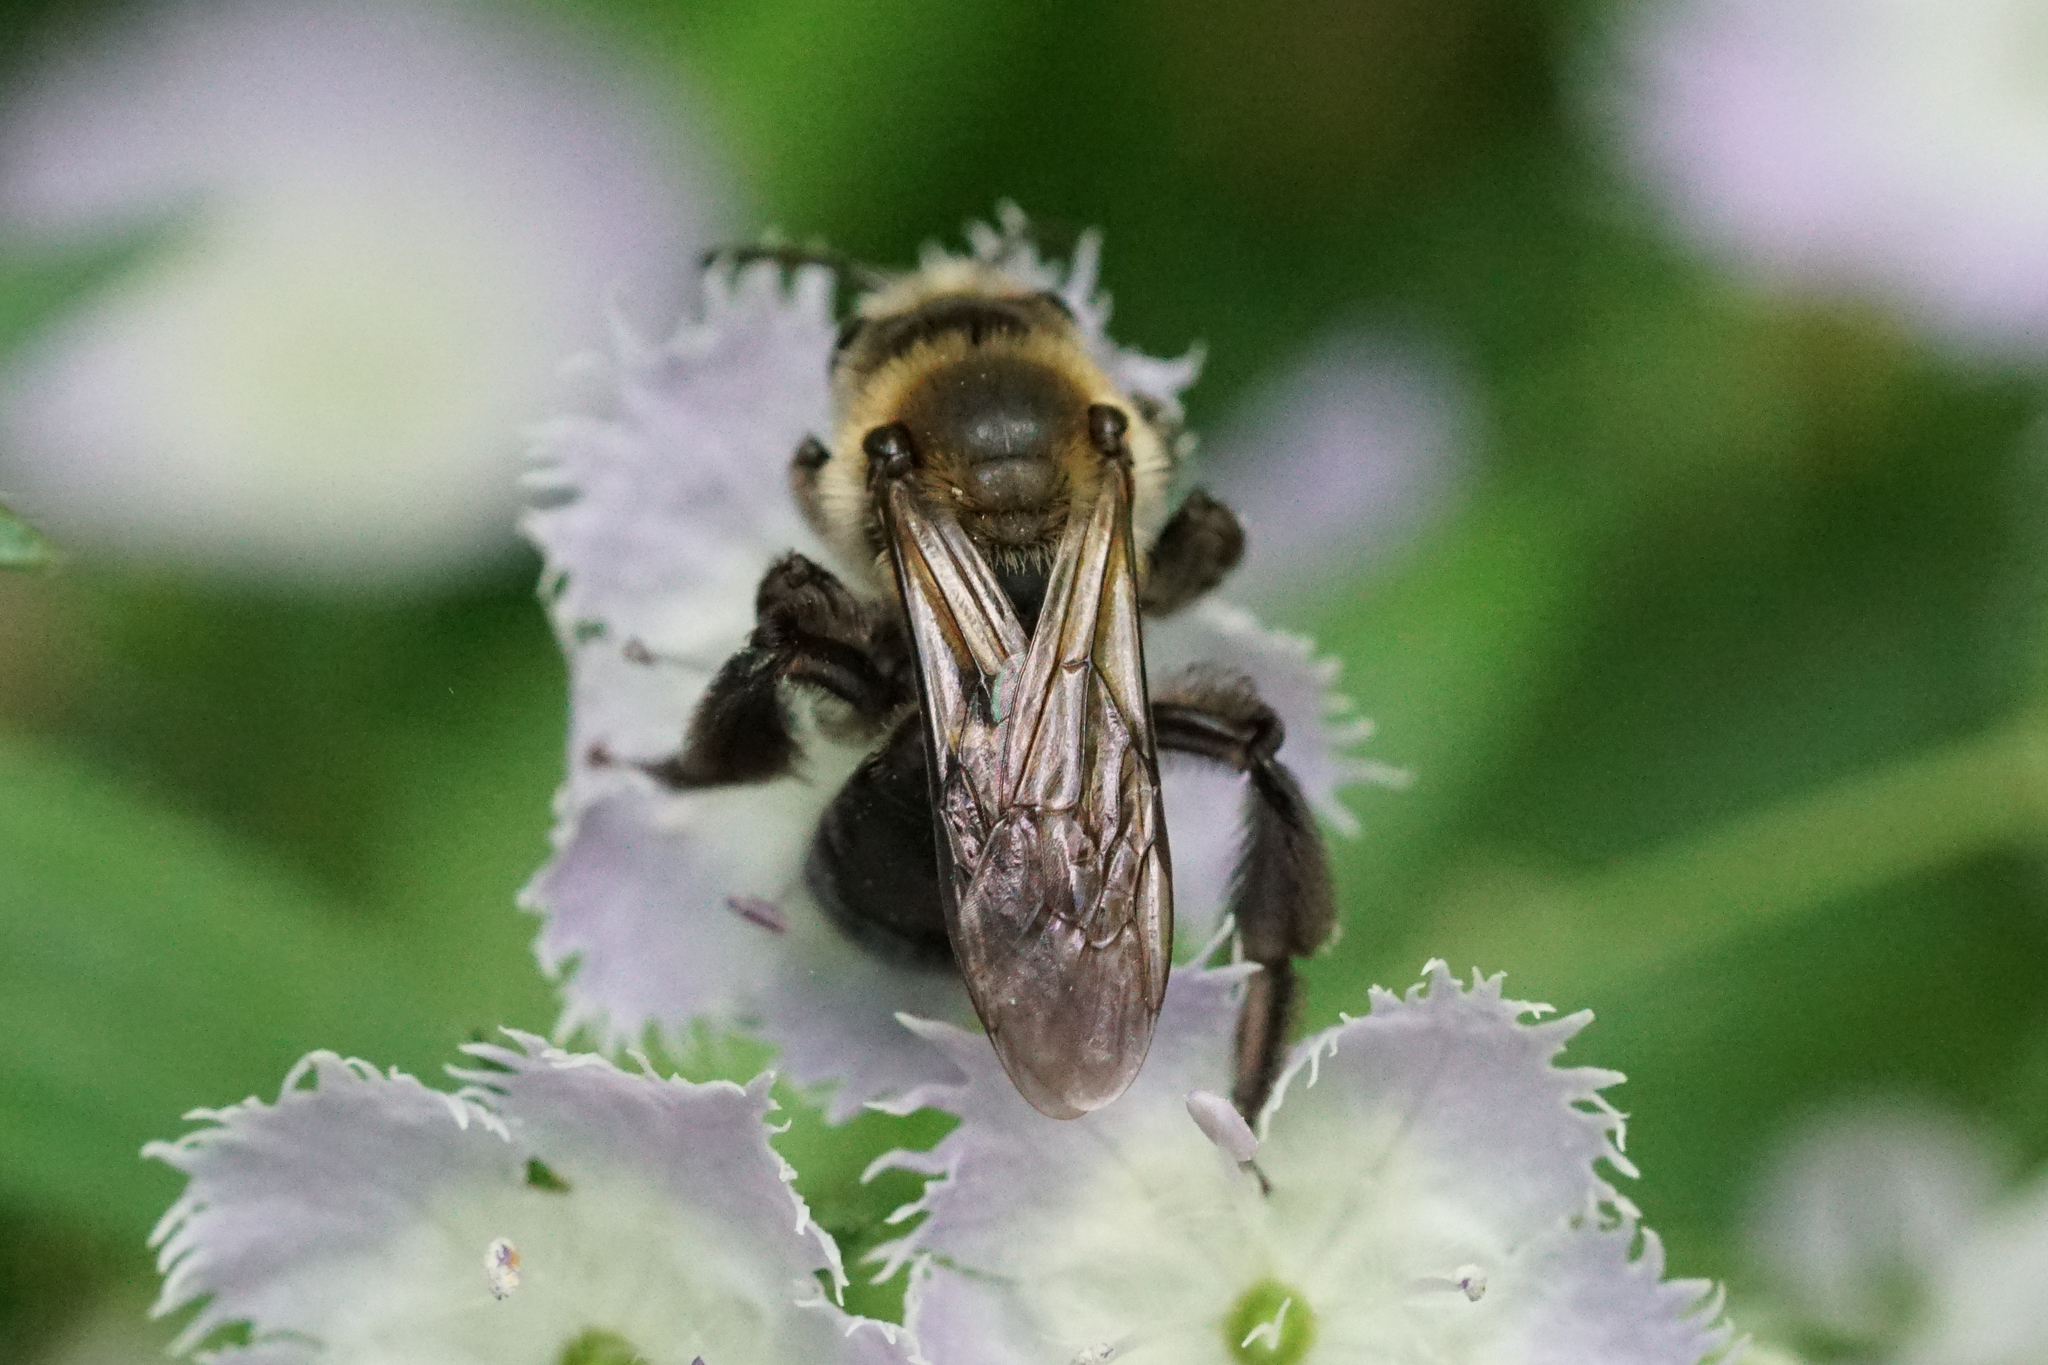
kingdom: Animalia
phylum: Arthropoda
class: Insecta
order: Hymenoptera
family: Andrenidae
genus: Andrena
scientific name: Andrena vicina
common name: Neighborly mining bee
